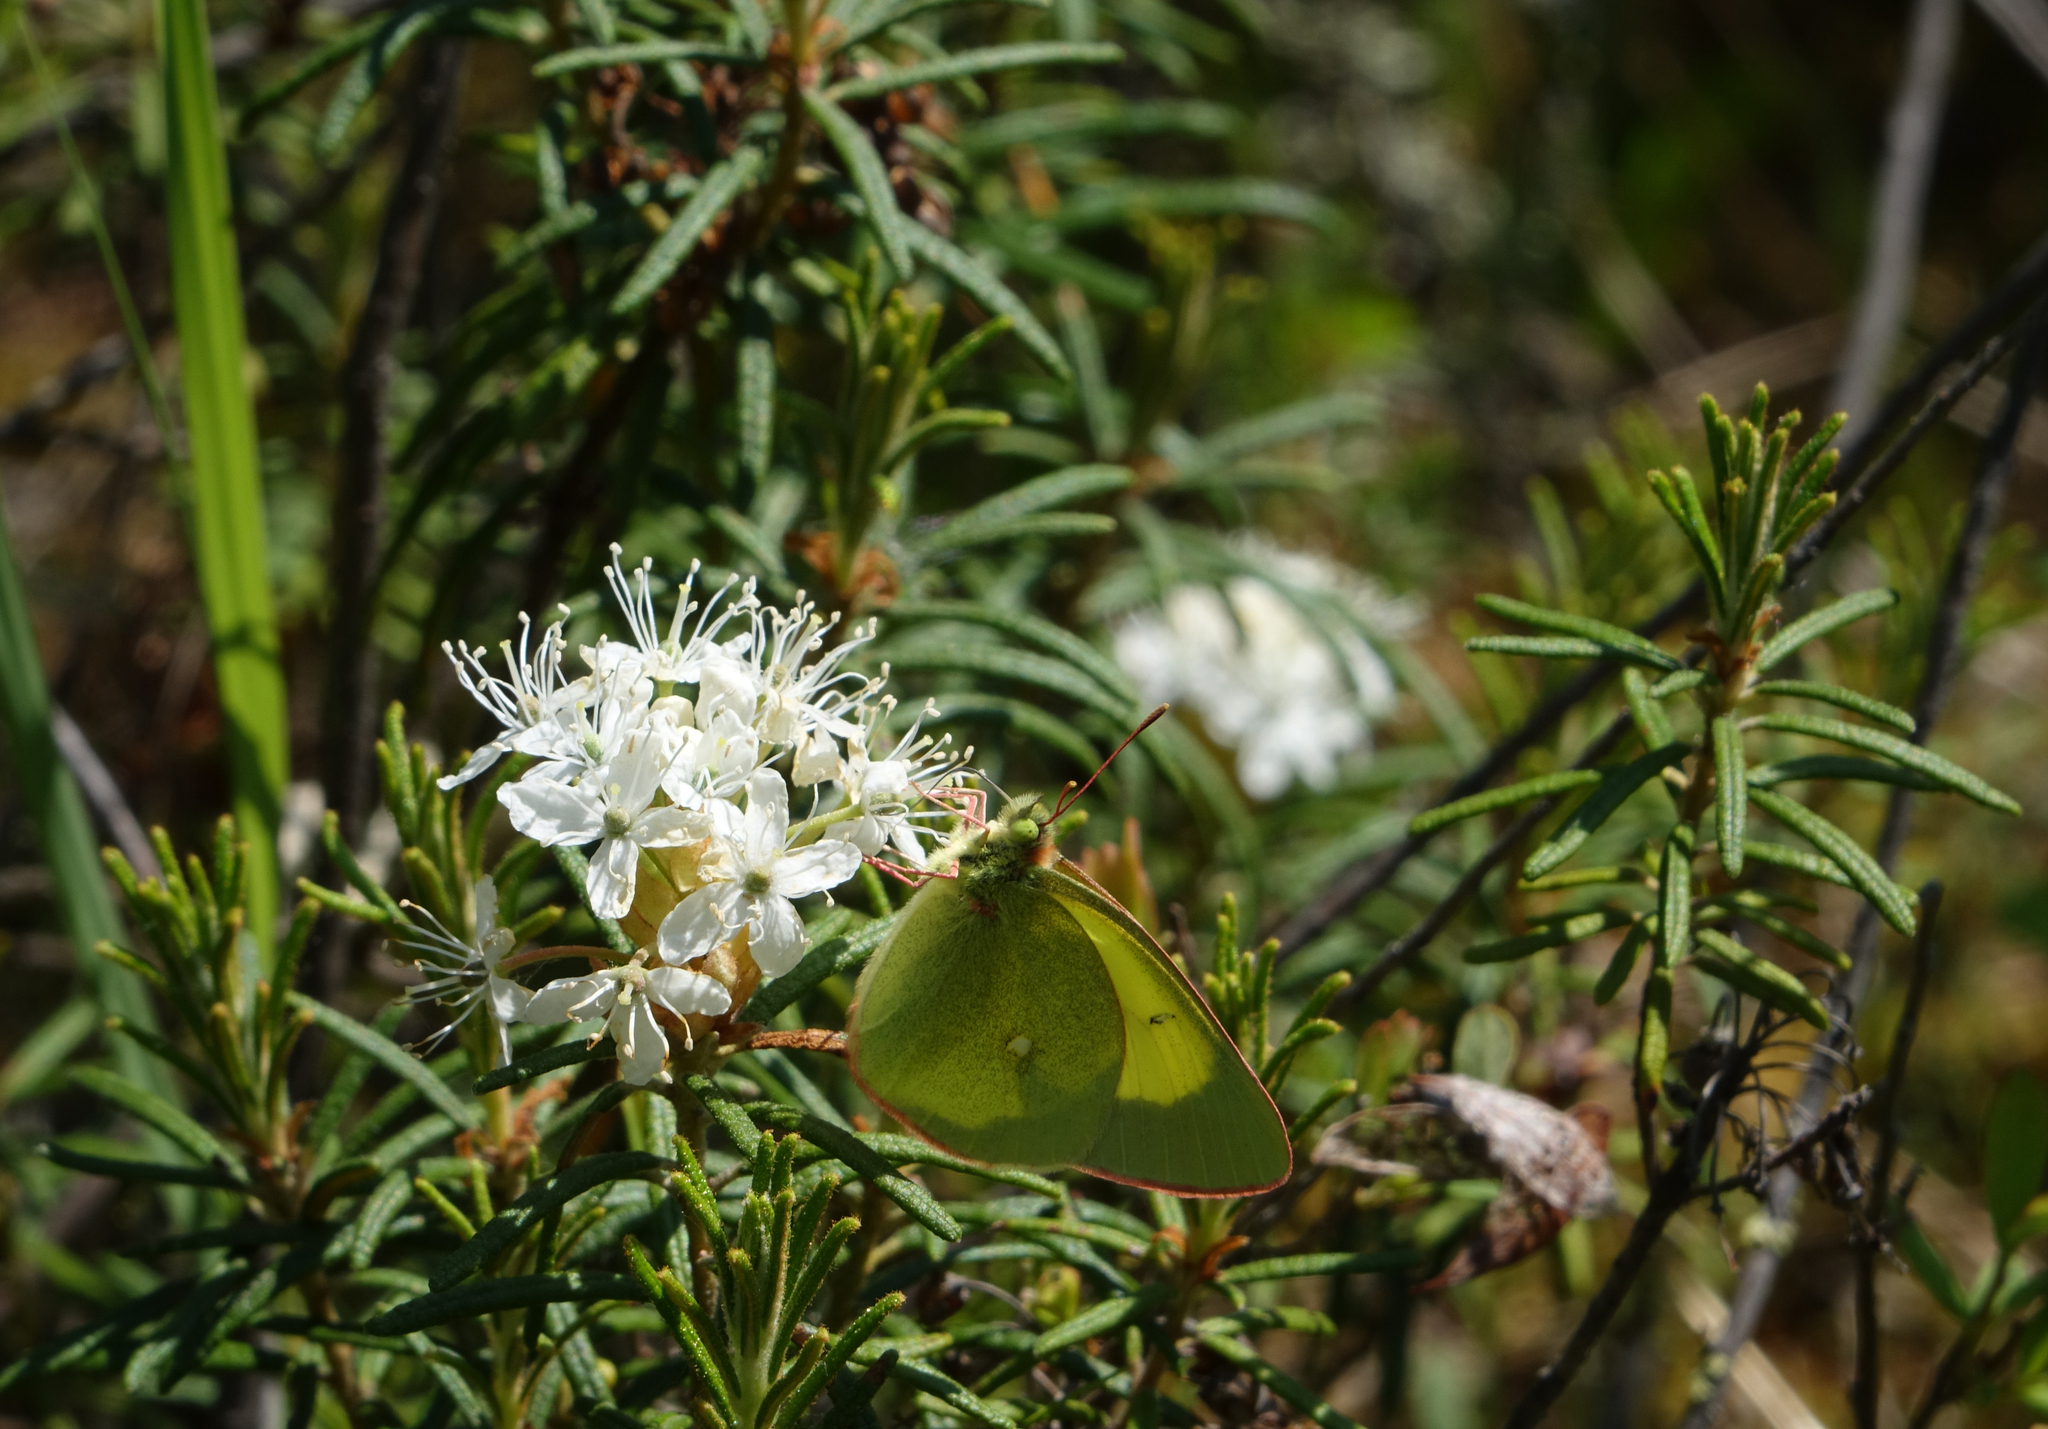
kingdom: Animalia
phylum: Arthropoda
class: Insecta
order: Lepidoptera
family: Pieridae
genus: Colias
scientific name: Colias palaeno
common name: Moorland clouded yellow
